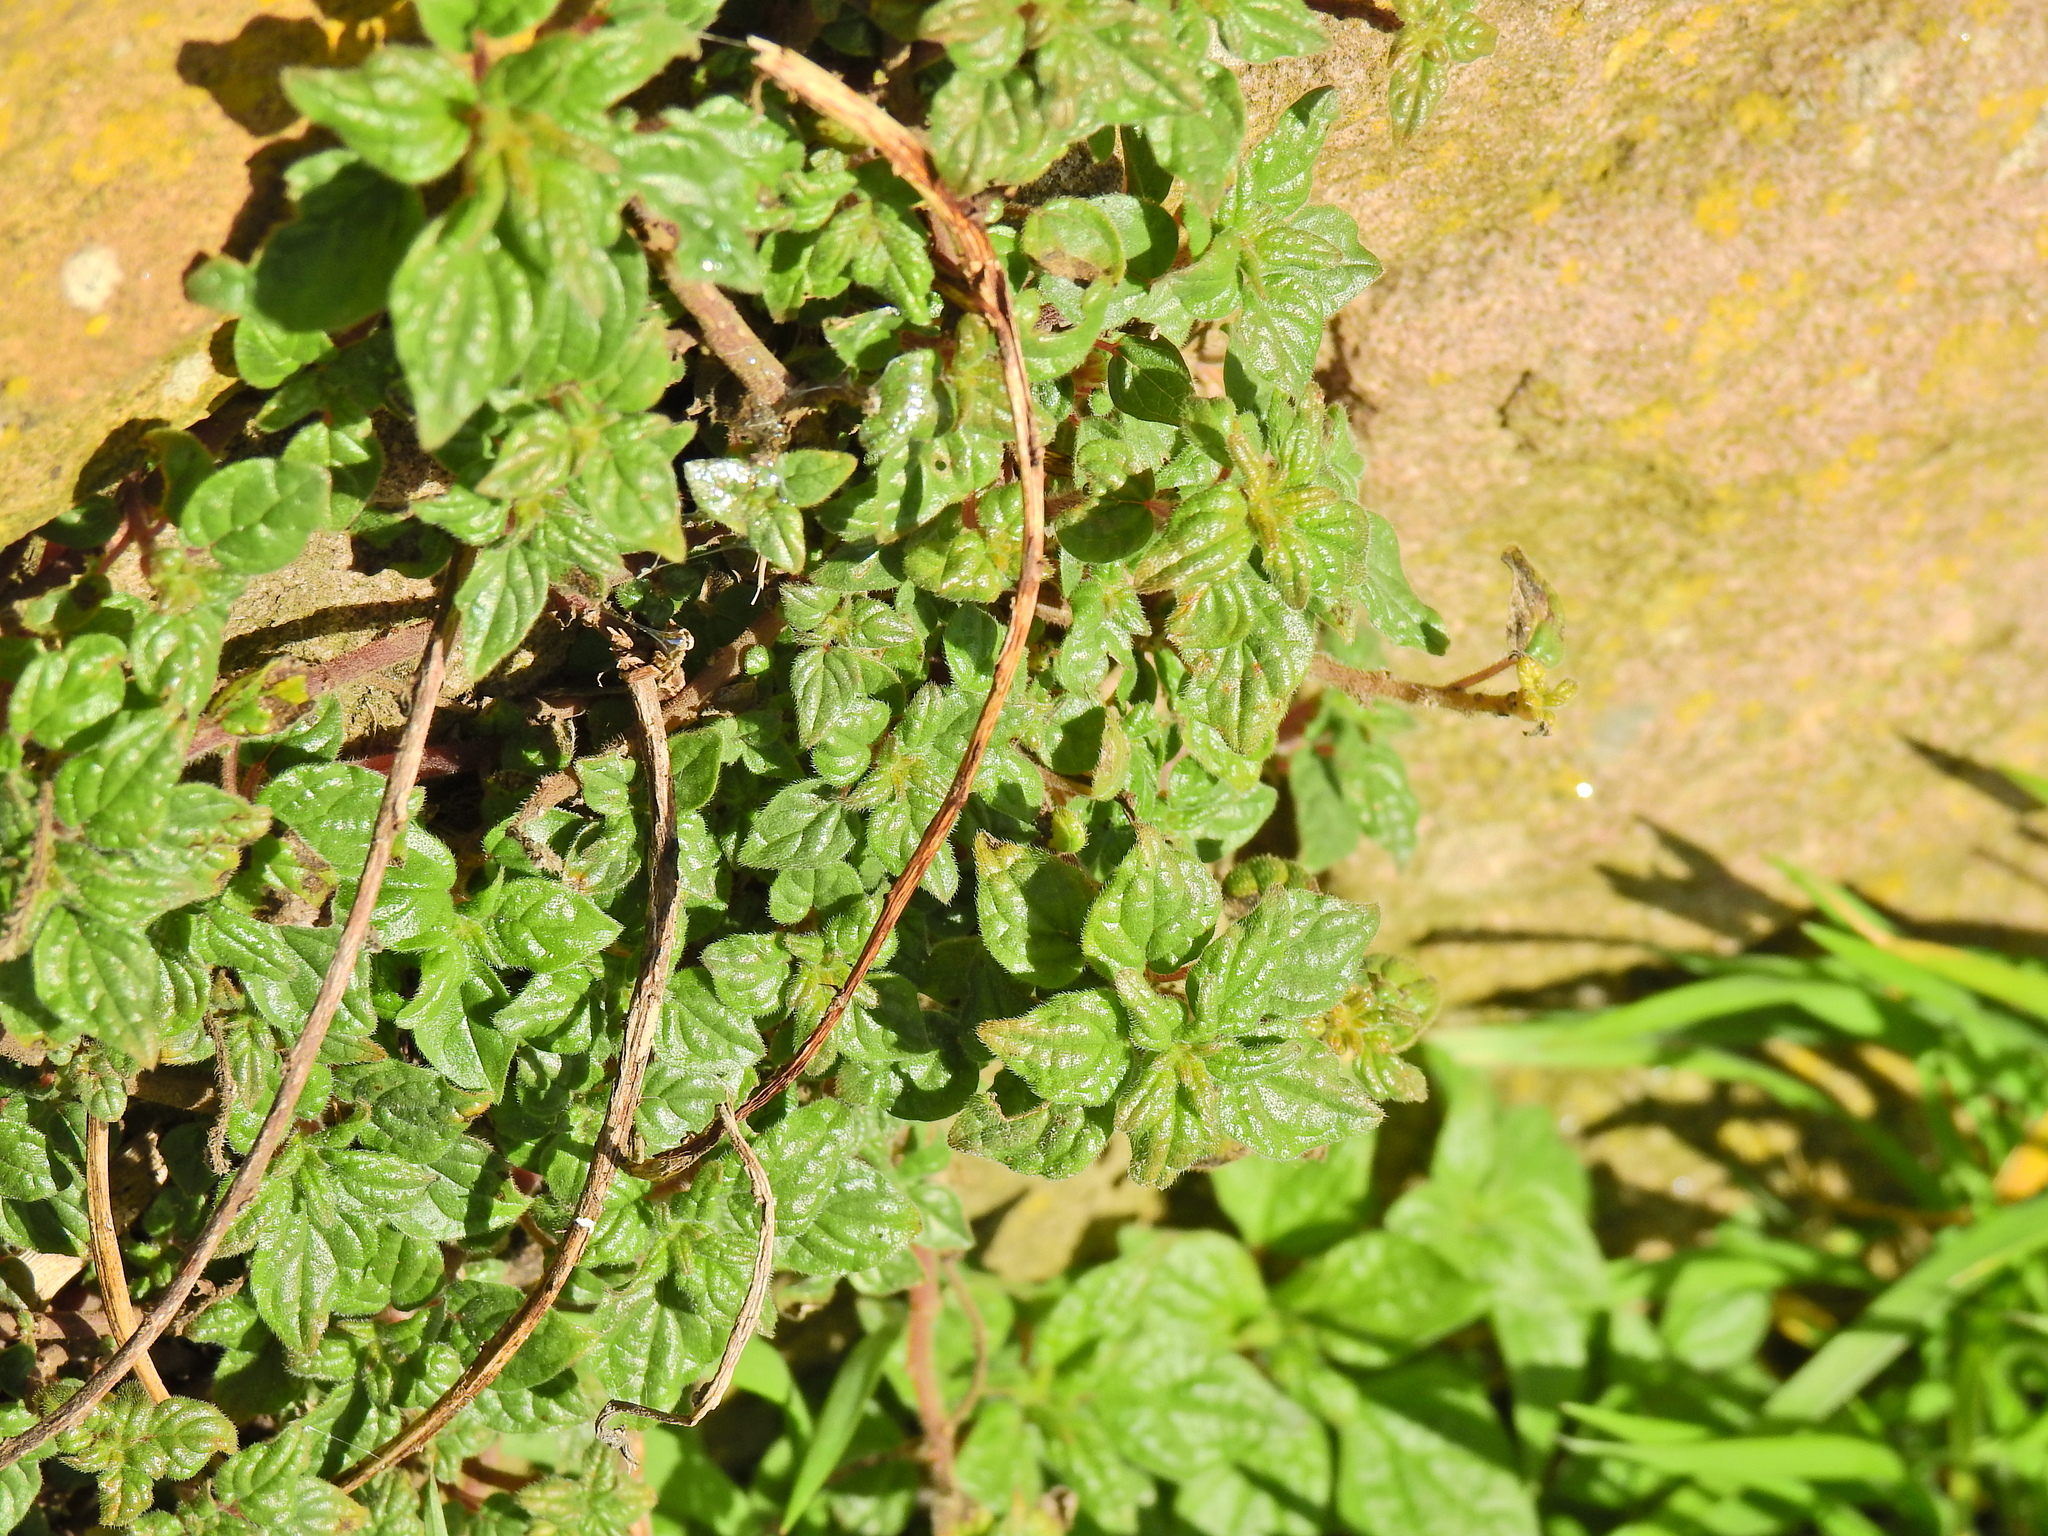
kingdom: Plantae
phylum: Tracheophyta
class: Magnoliopsida
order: Rosales
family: Urticaceae
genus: Parietaria
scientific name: Parietaria judaica
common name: Pellitory-of-the-wall
